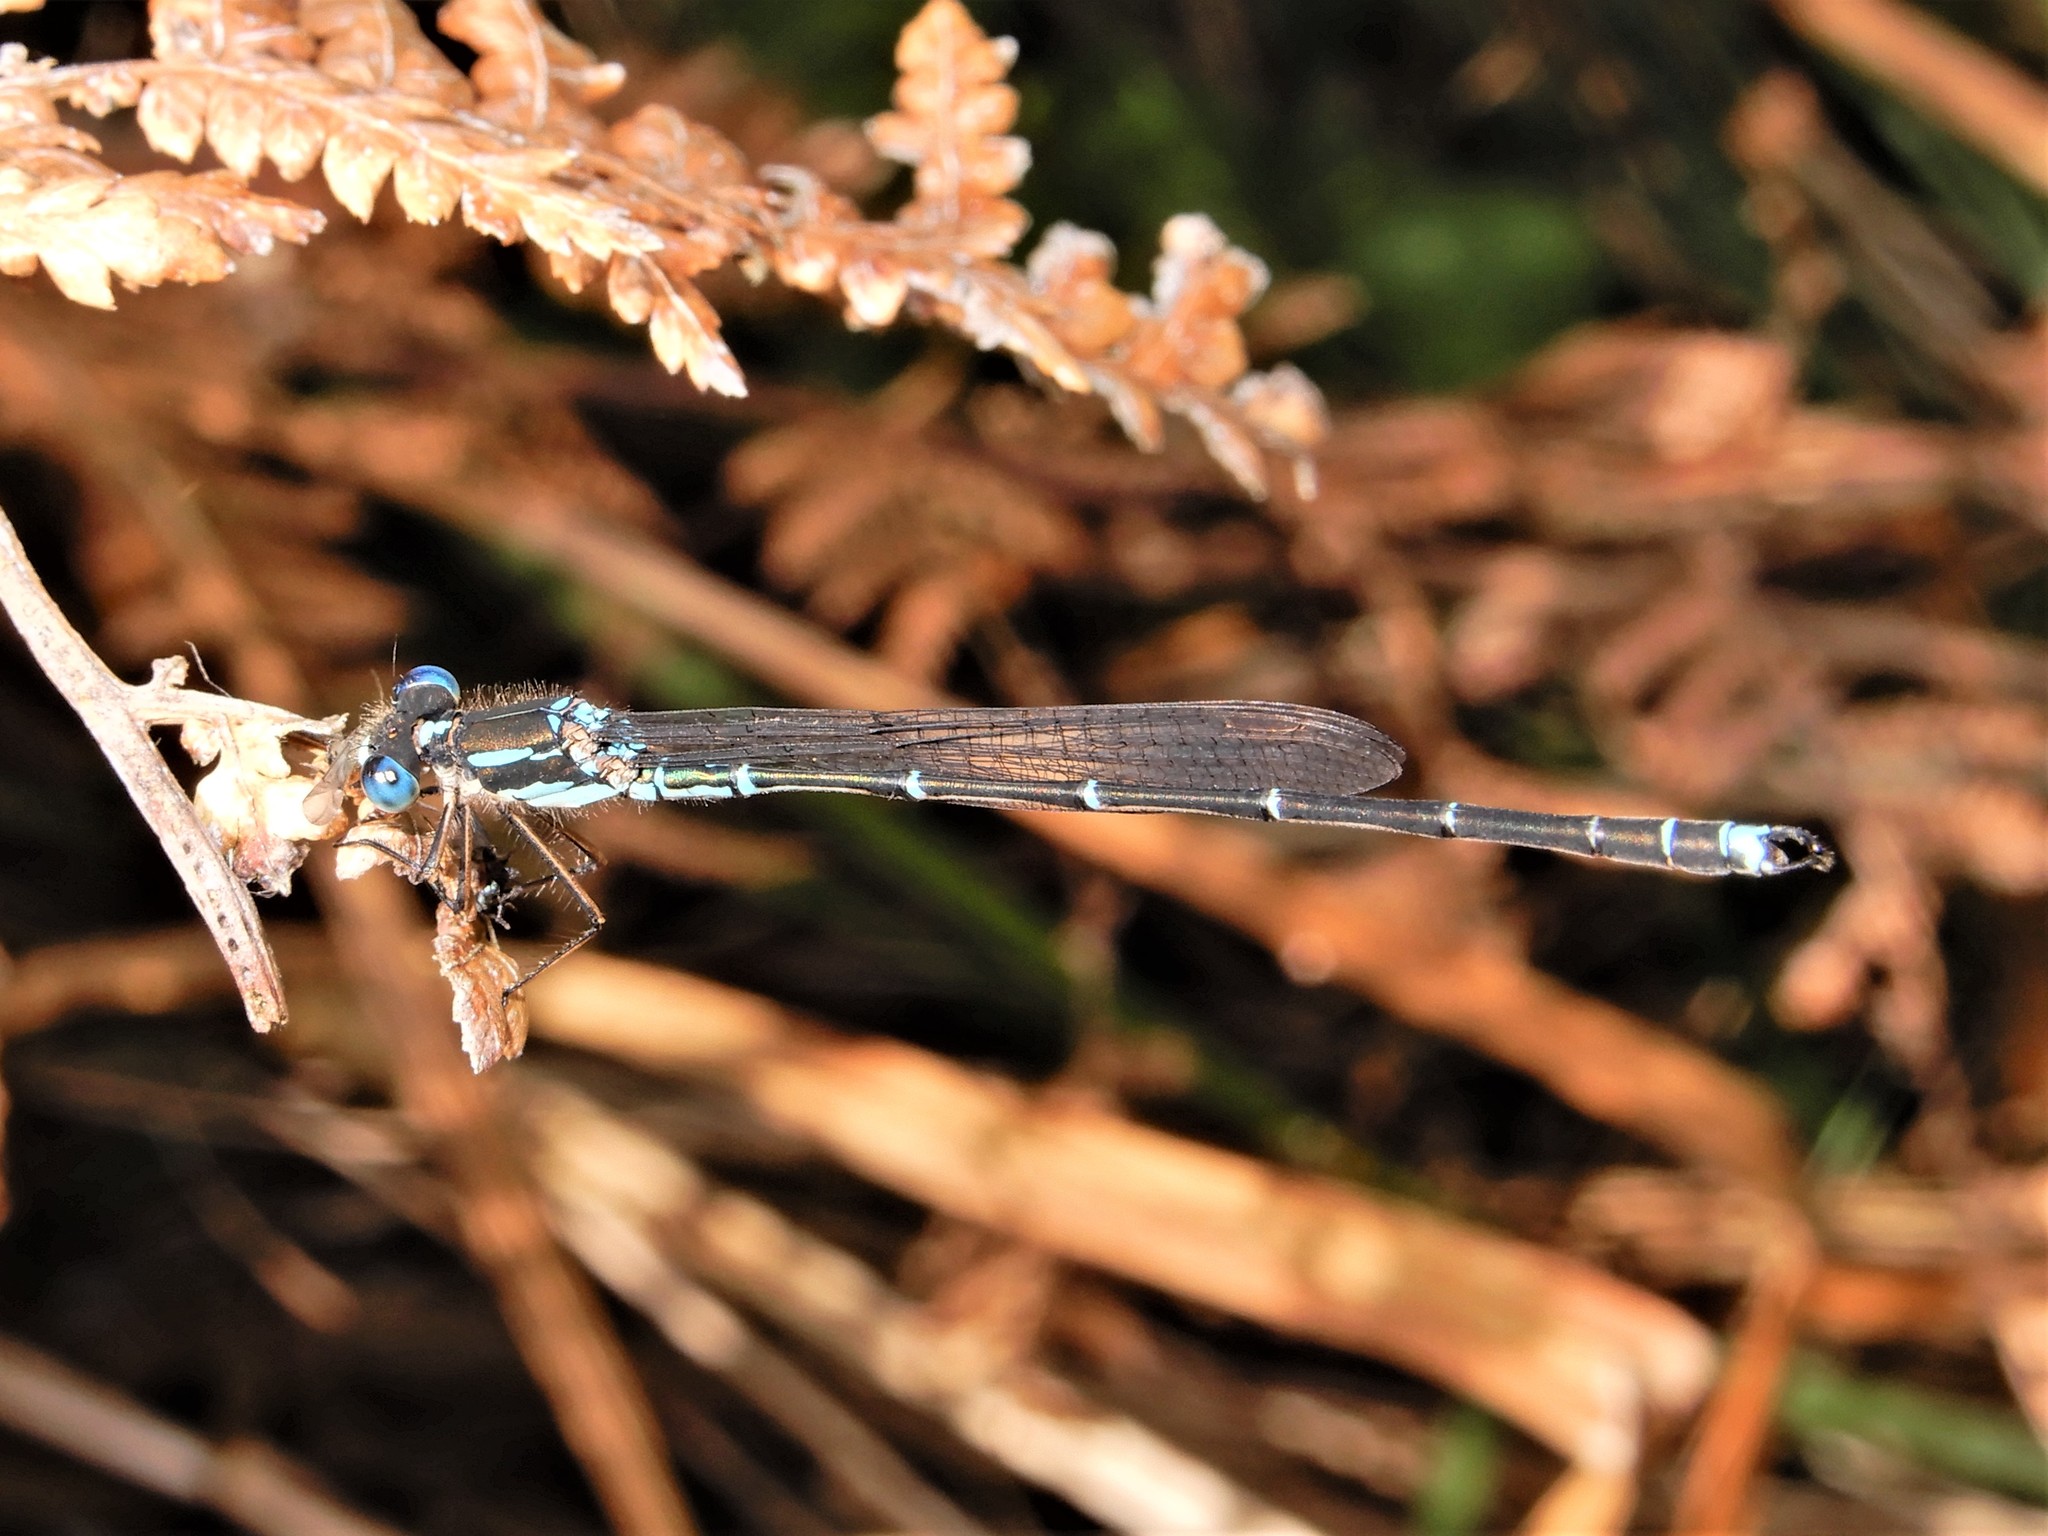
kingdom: Animalia
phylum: Arthropoda
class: Insecta
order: Odonata
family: Lestidae
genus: Austrolestes
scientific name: Austrolestes colensonis
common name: Blue damselfly
